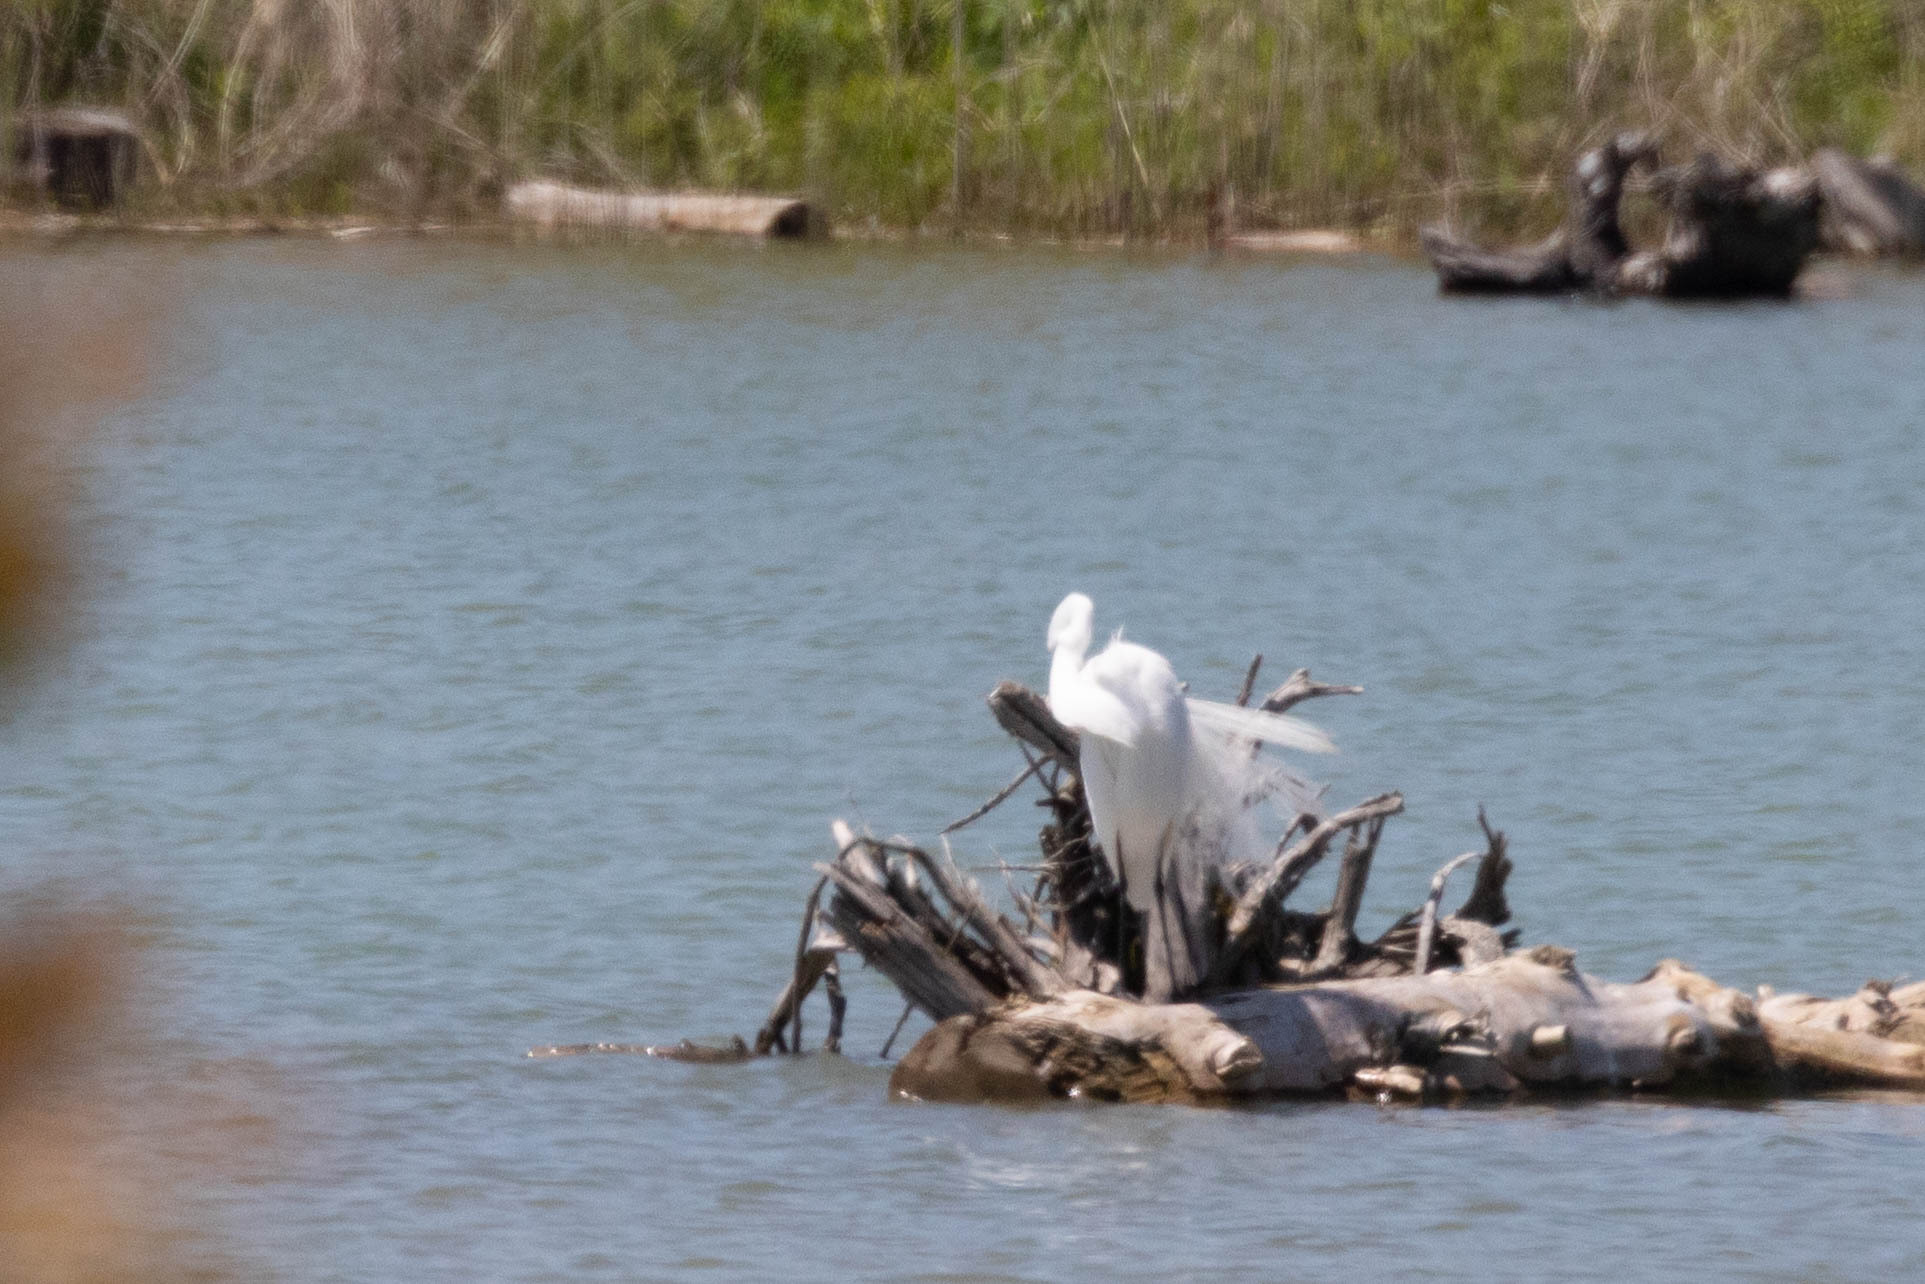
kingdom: Animalia
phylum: Chordata
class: Aves
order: Pelecaniformes
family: Ardeidae
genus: Ardea
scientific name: Ardea alba
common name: Great egret
